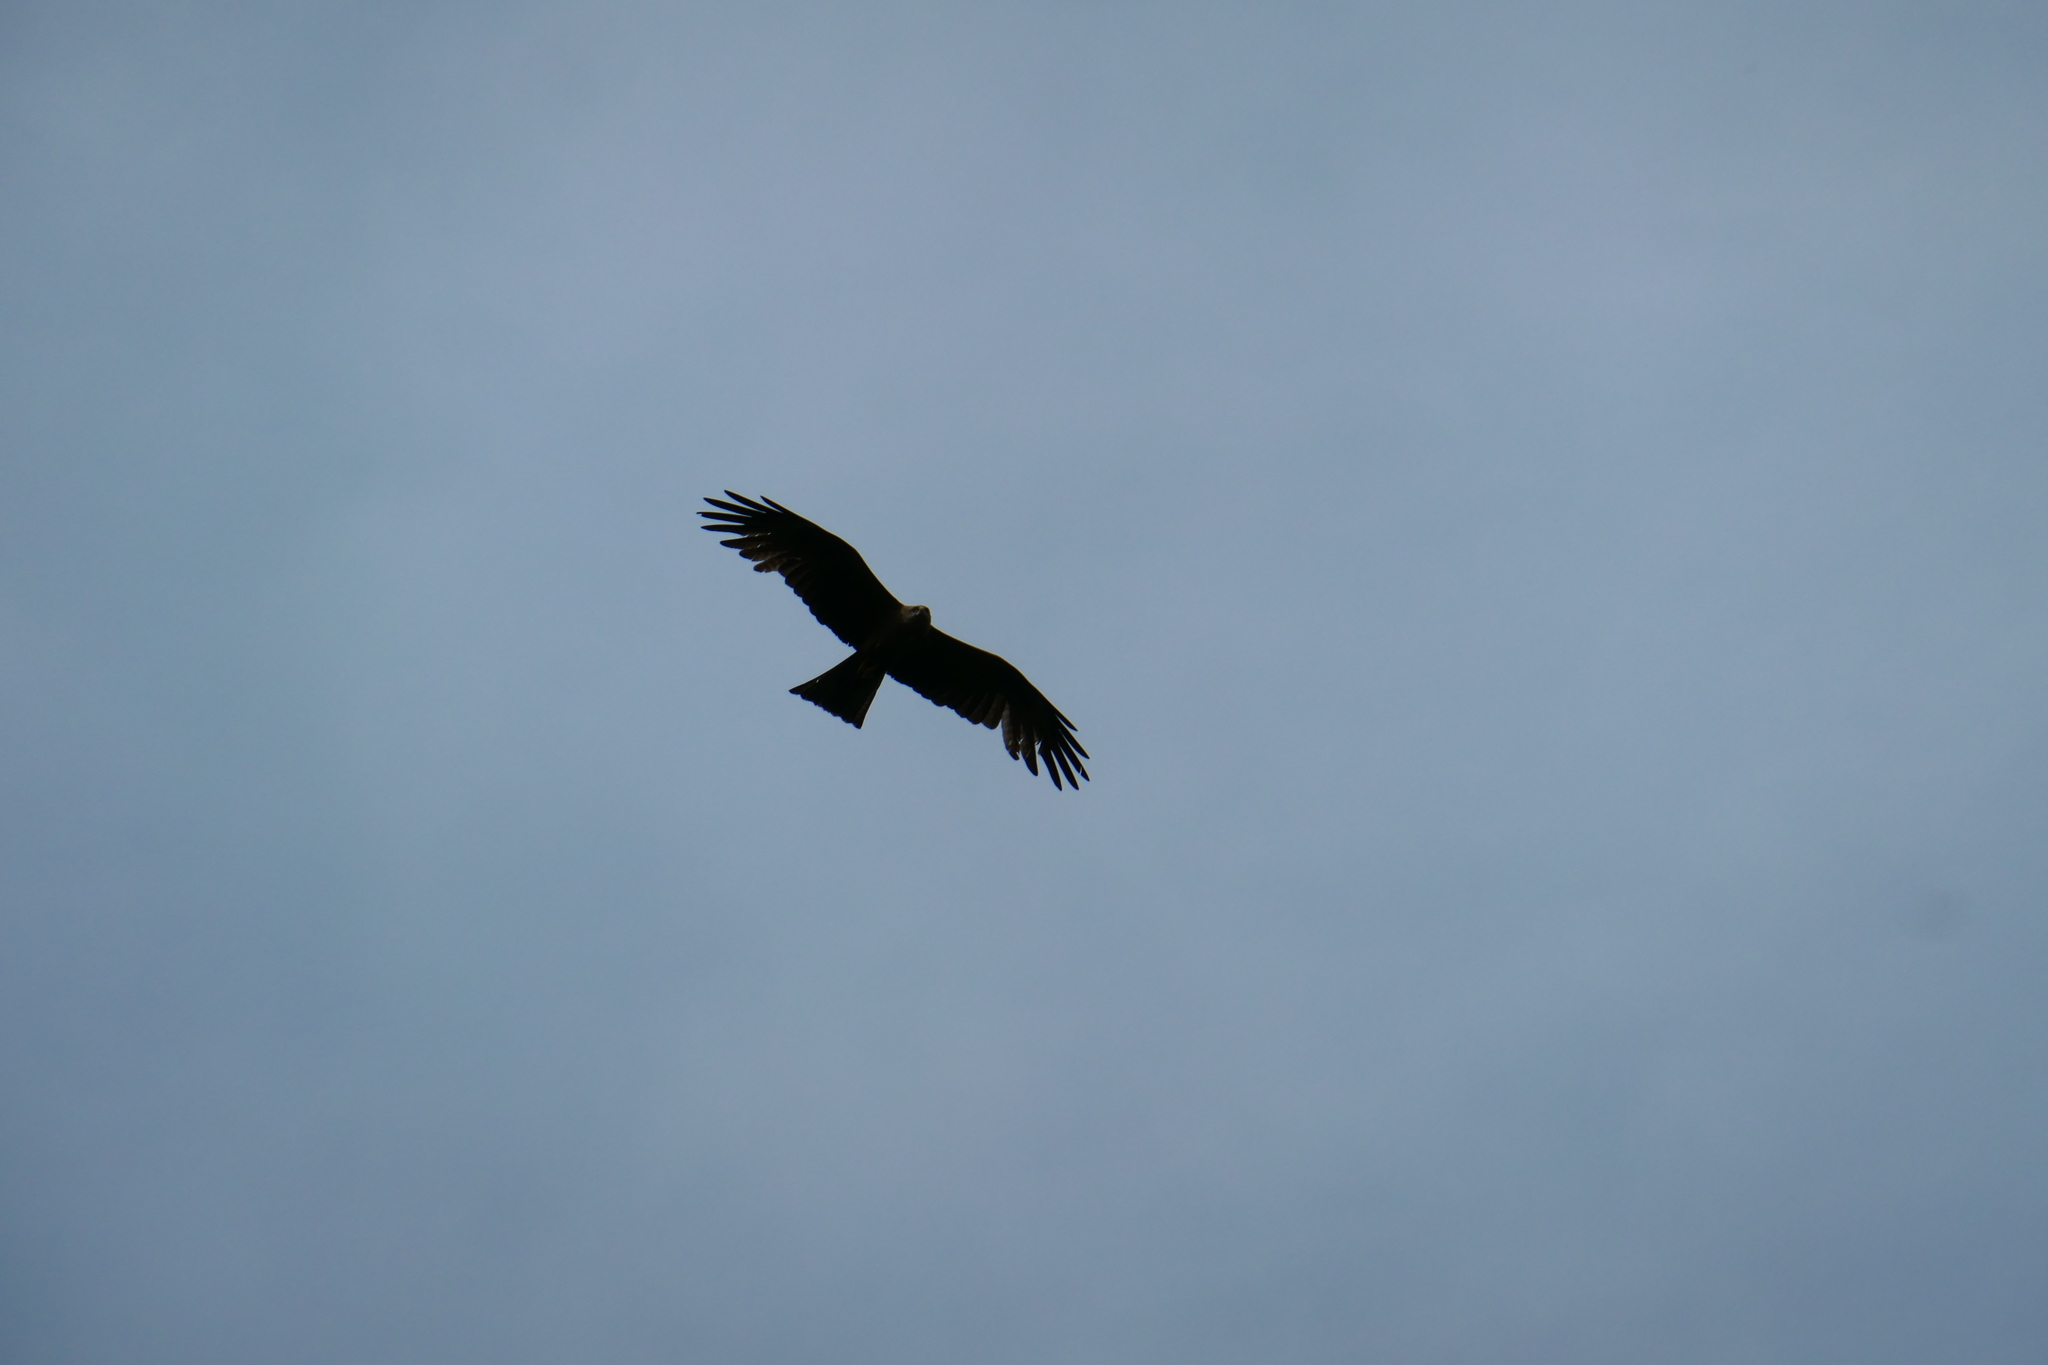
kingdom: Animalia
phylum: Chordata
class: Aves
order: Accipitriformes
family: Accipitridae
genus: Milvus
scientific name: Milvus migrans
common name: Black kite
